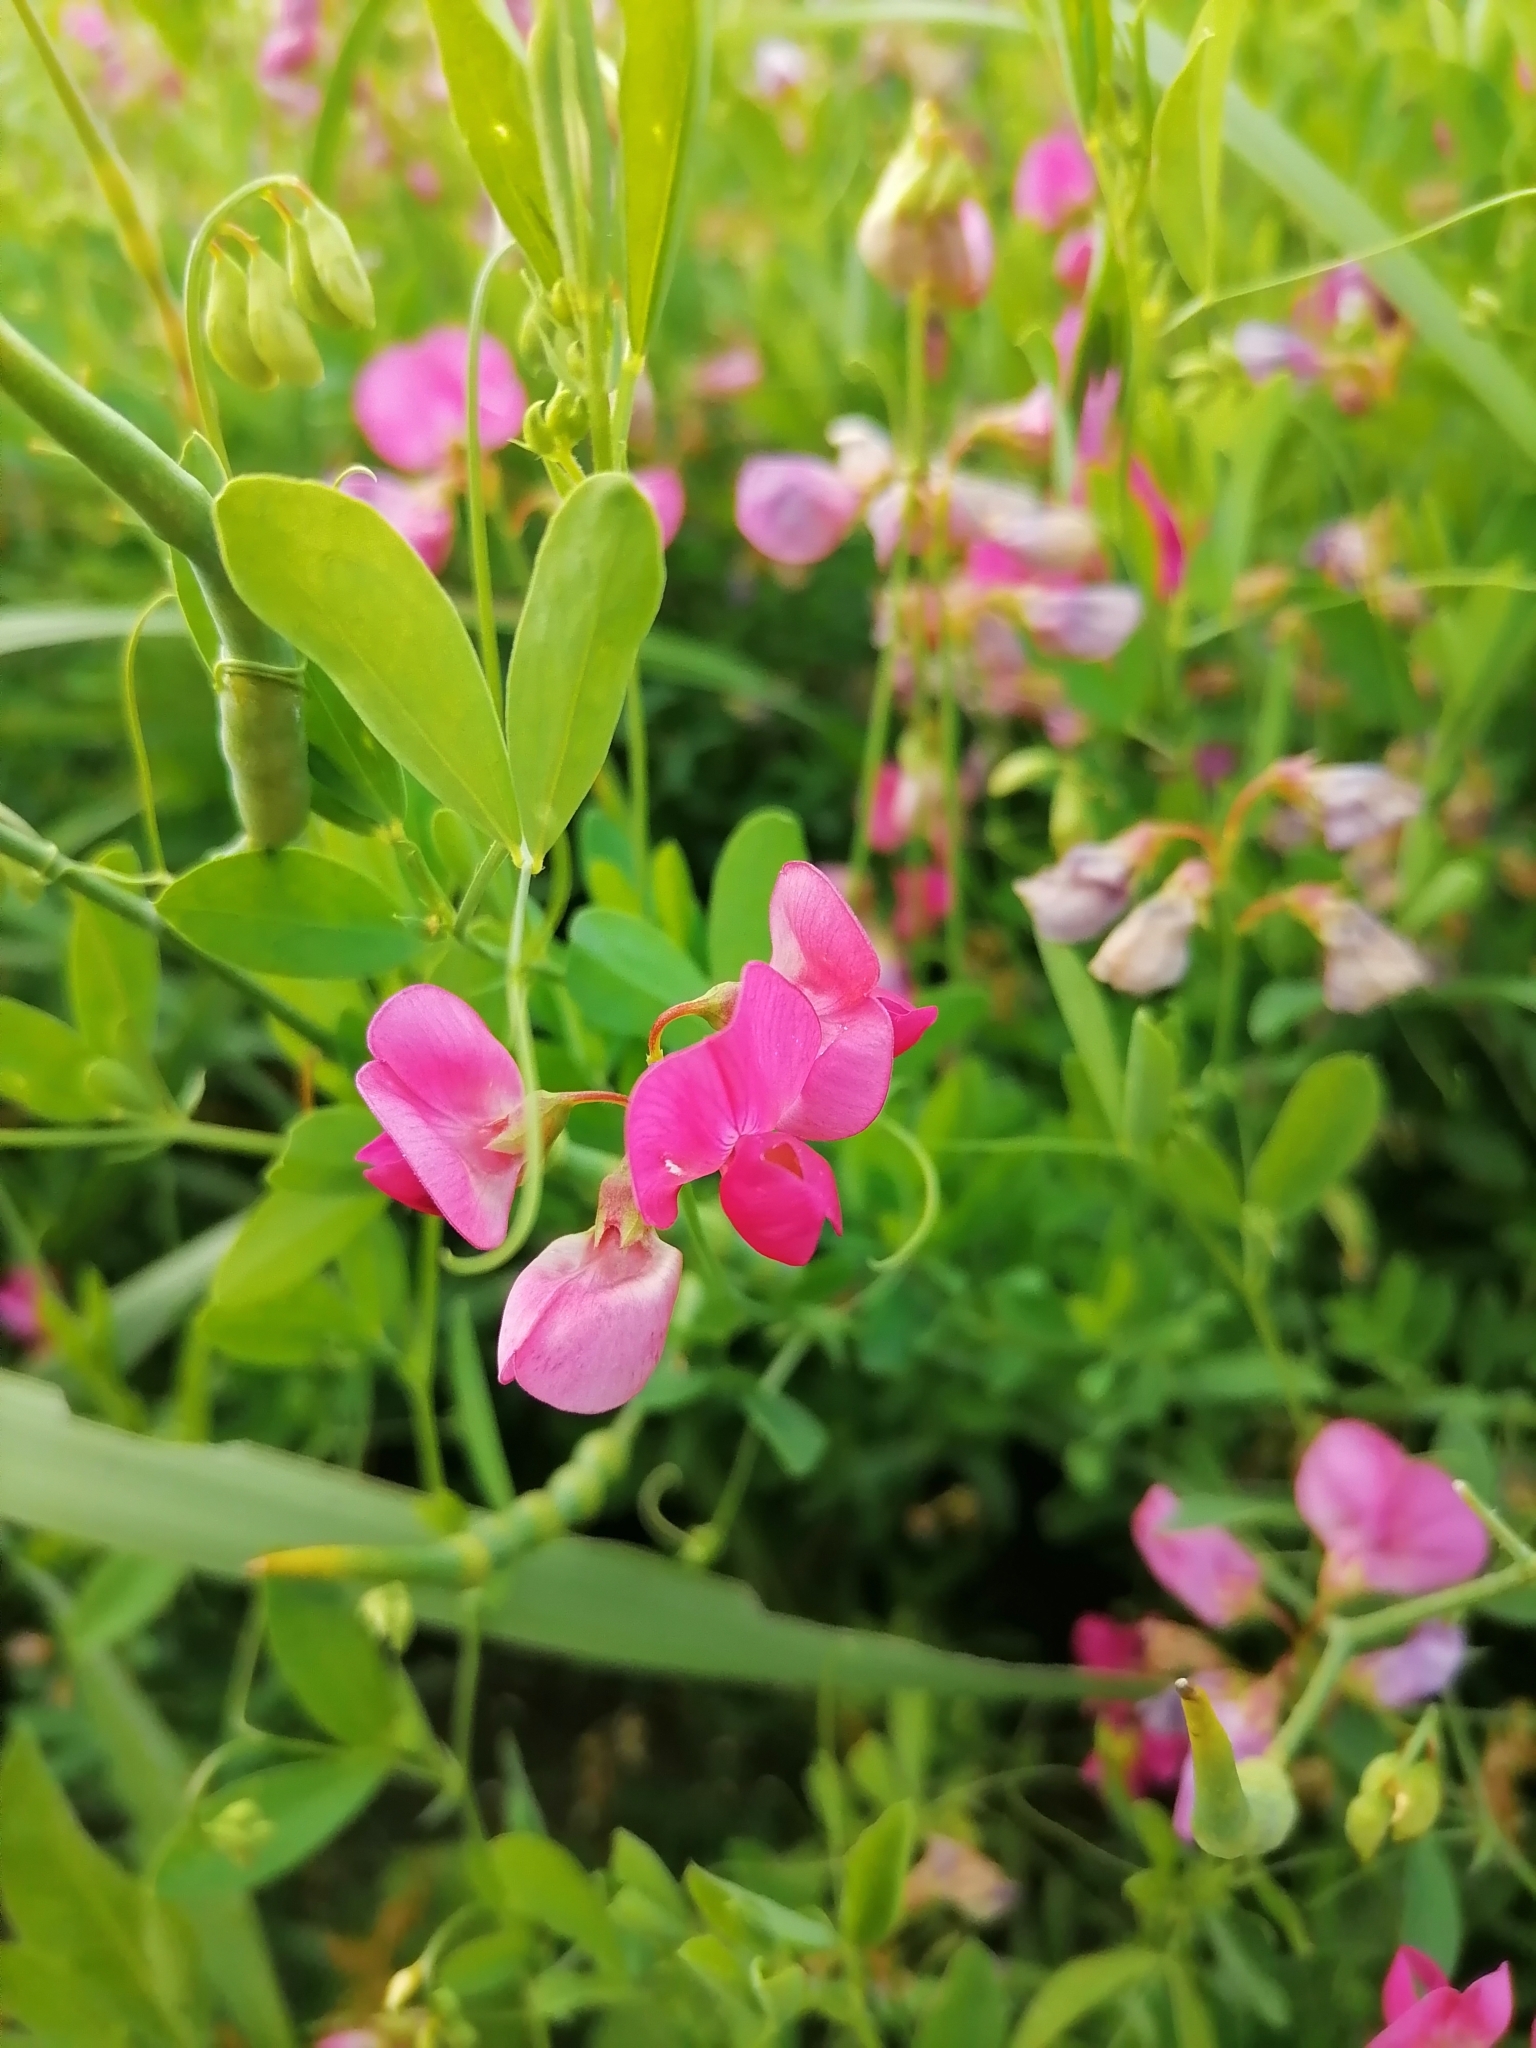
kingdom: Plantae
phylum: Tracheophyta
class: Magnoliopsida
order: Fabales
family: Fabaceae
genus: Lathyrus
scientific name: Lathyrus tuberosus
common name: Tuberous pea
